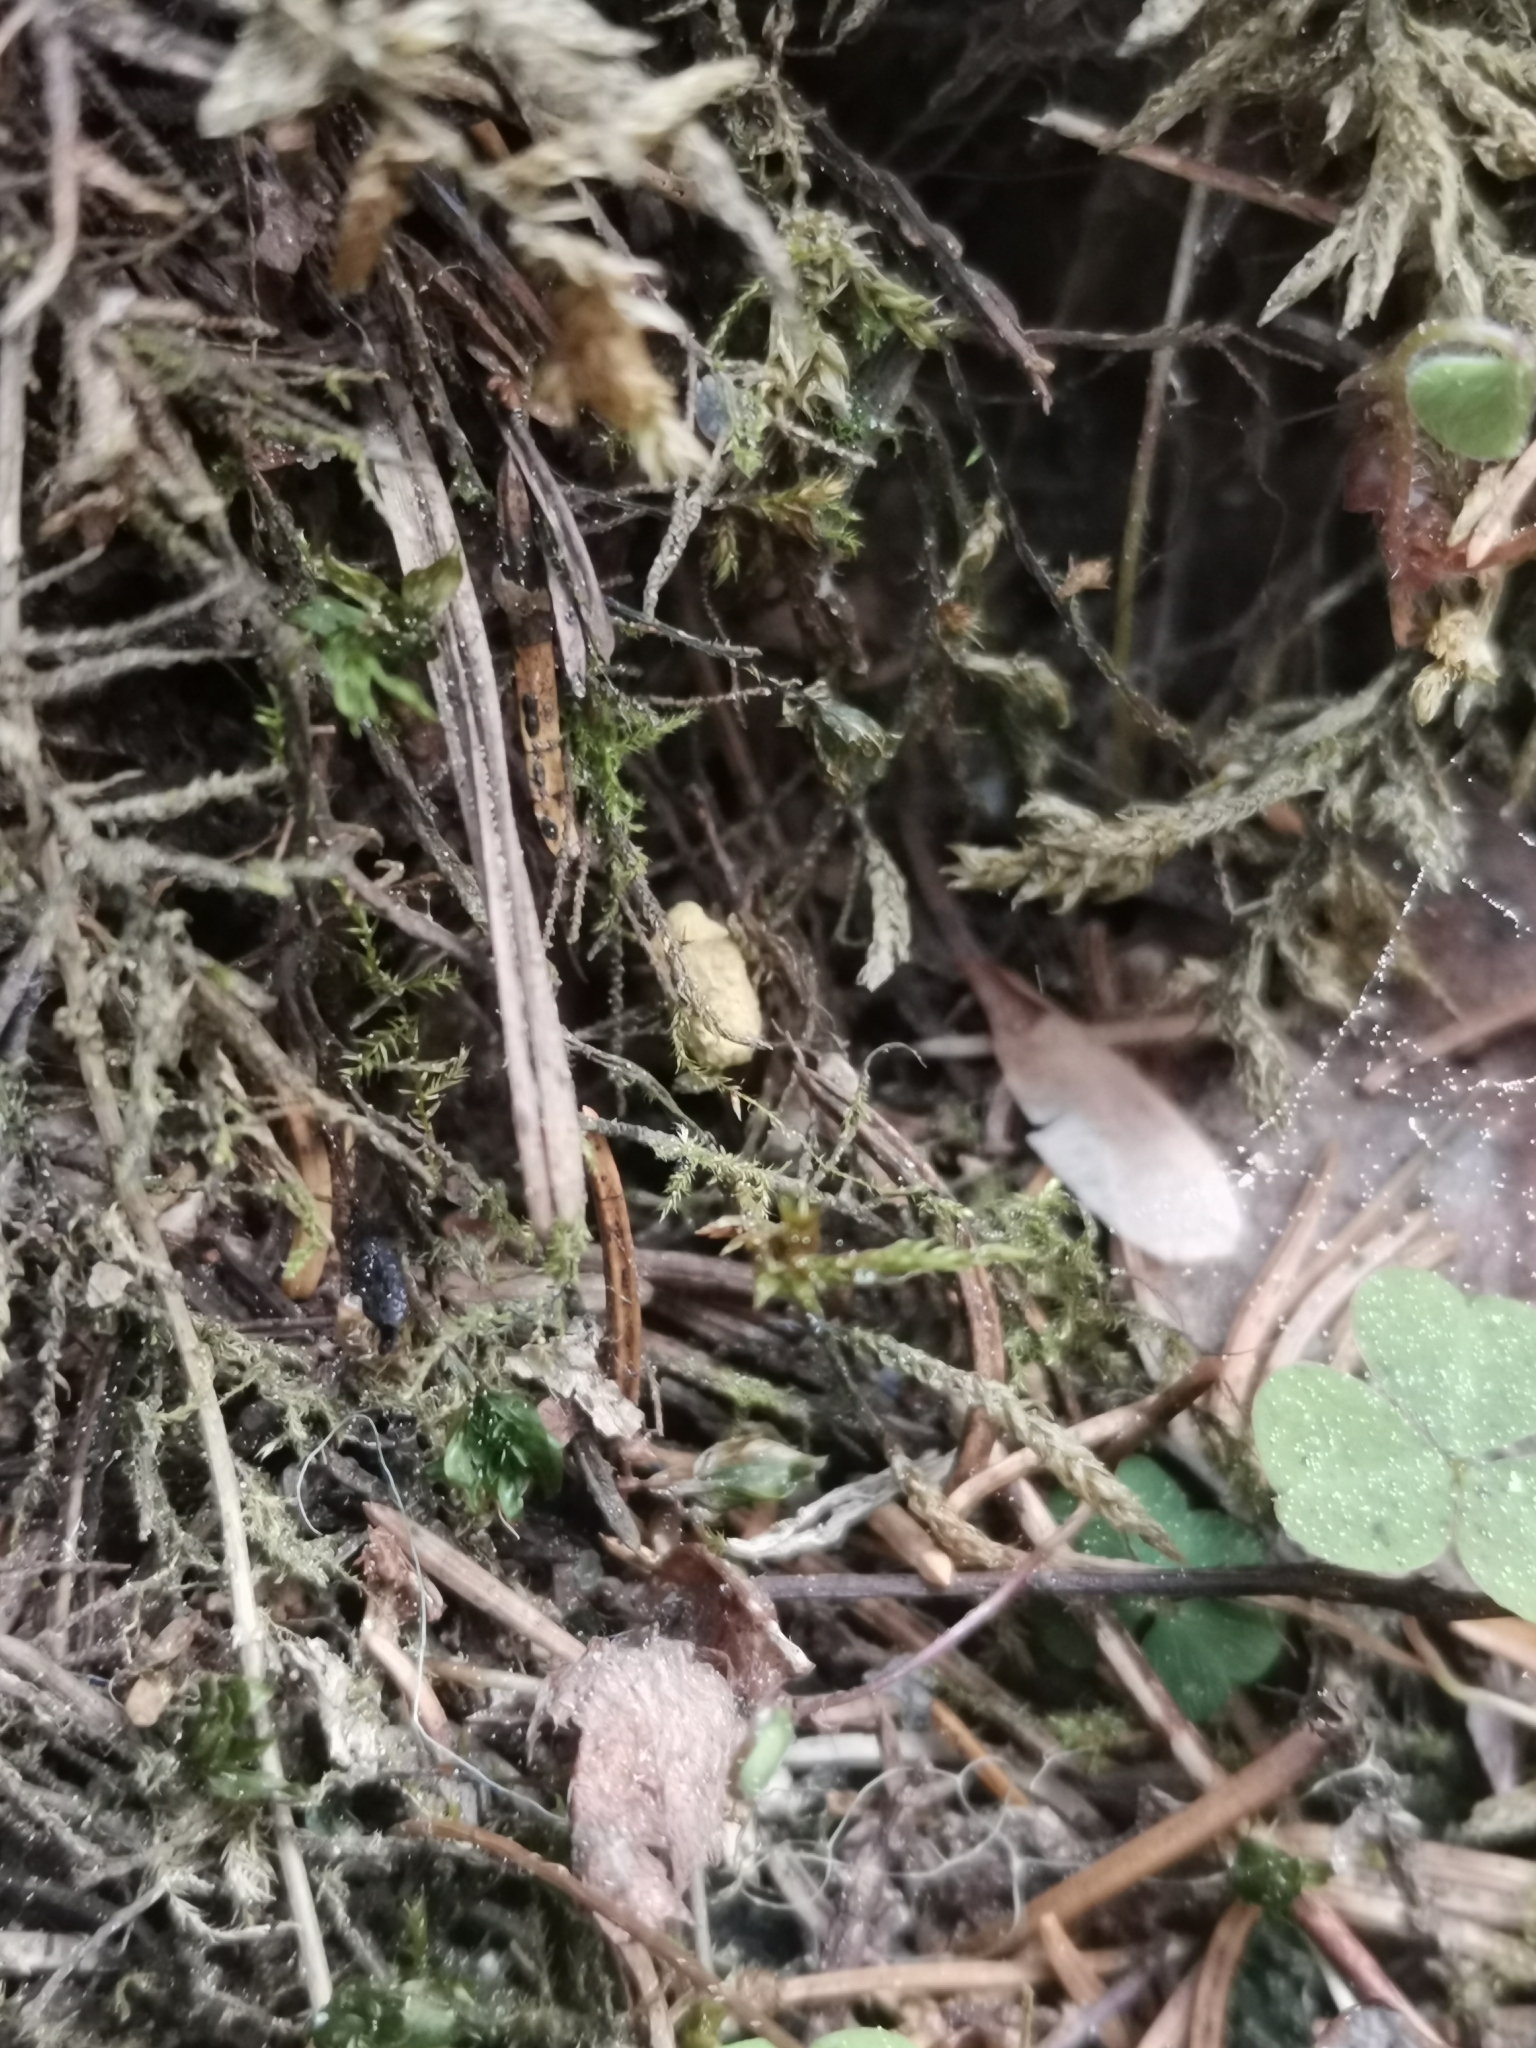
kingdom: Animalia
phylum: Chordata
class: Mammalia
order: Rodentia
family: Sciuridae
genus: Pteromys
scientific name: Pteromys volans
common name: Siberian flying squirrel
